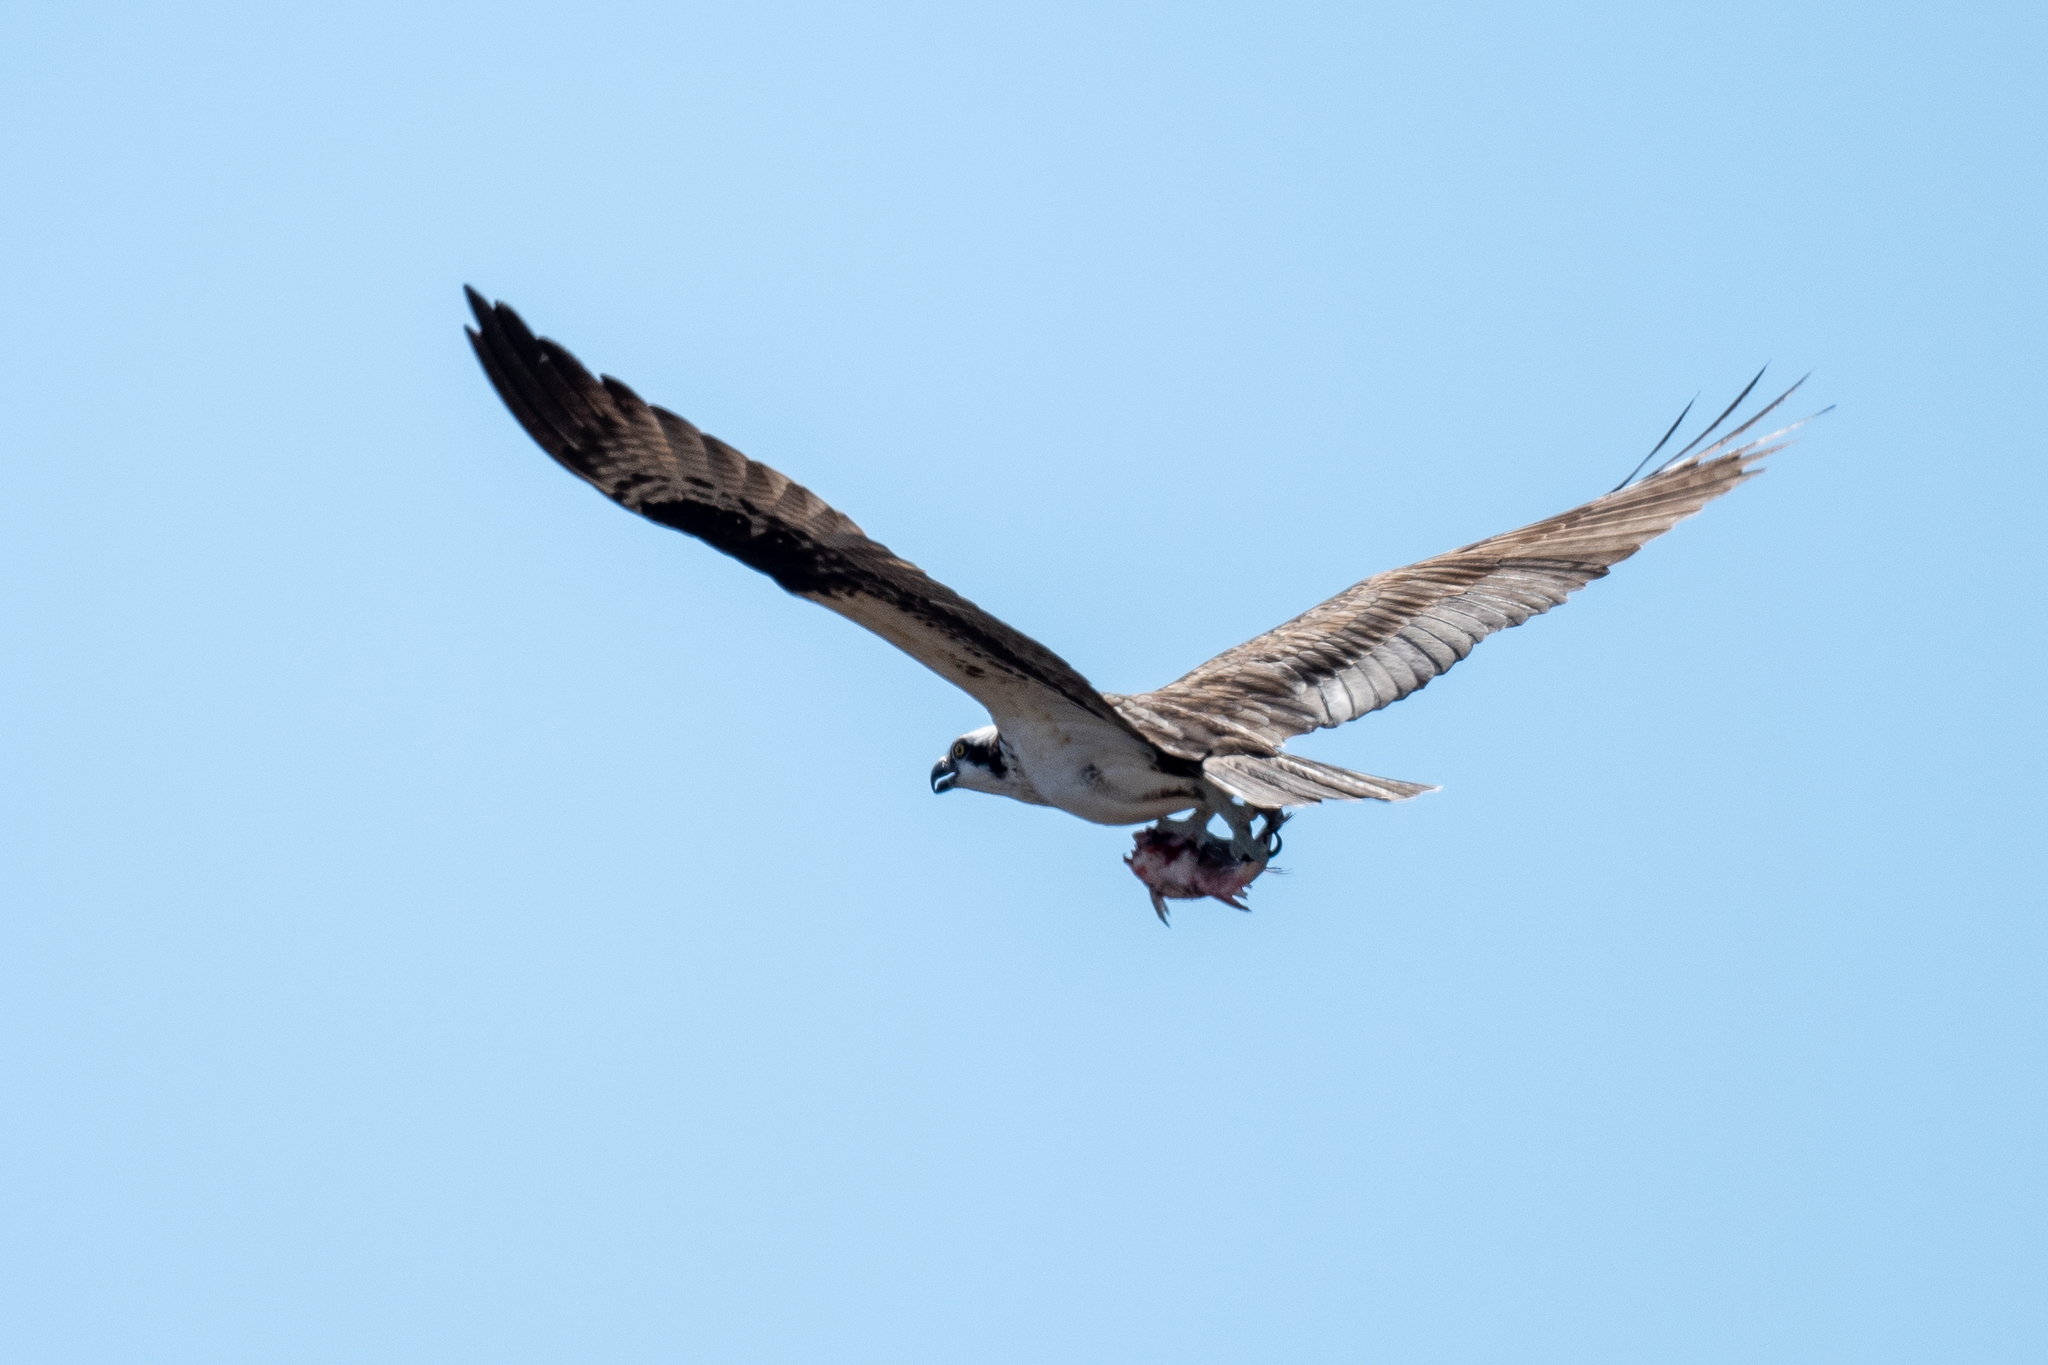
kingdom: Animalia
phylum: Chordata
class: Aves
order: Accipitriformes
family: Pandionidae
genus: Pandion
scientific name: Pandion haliaetus
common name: Osprey
